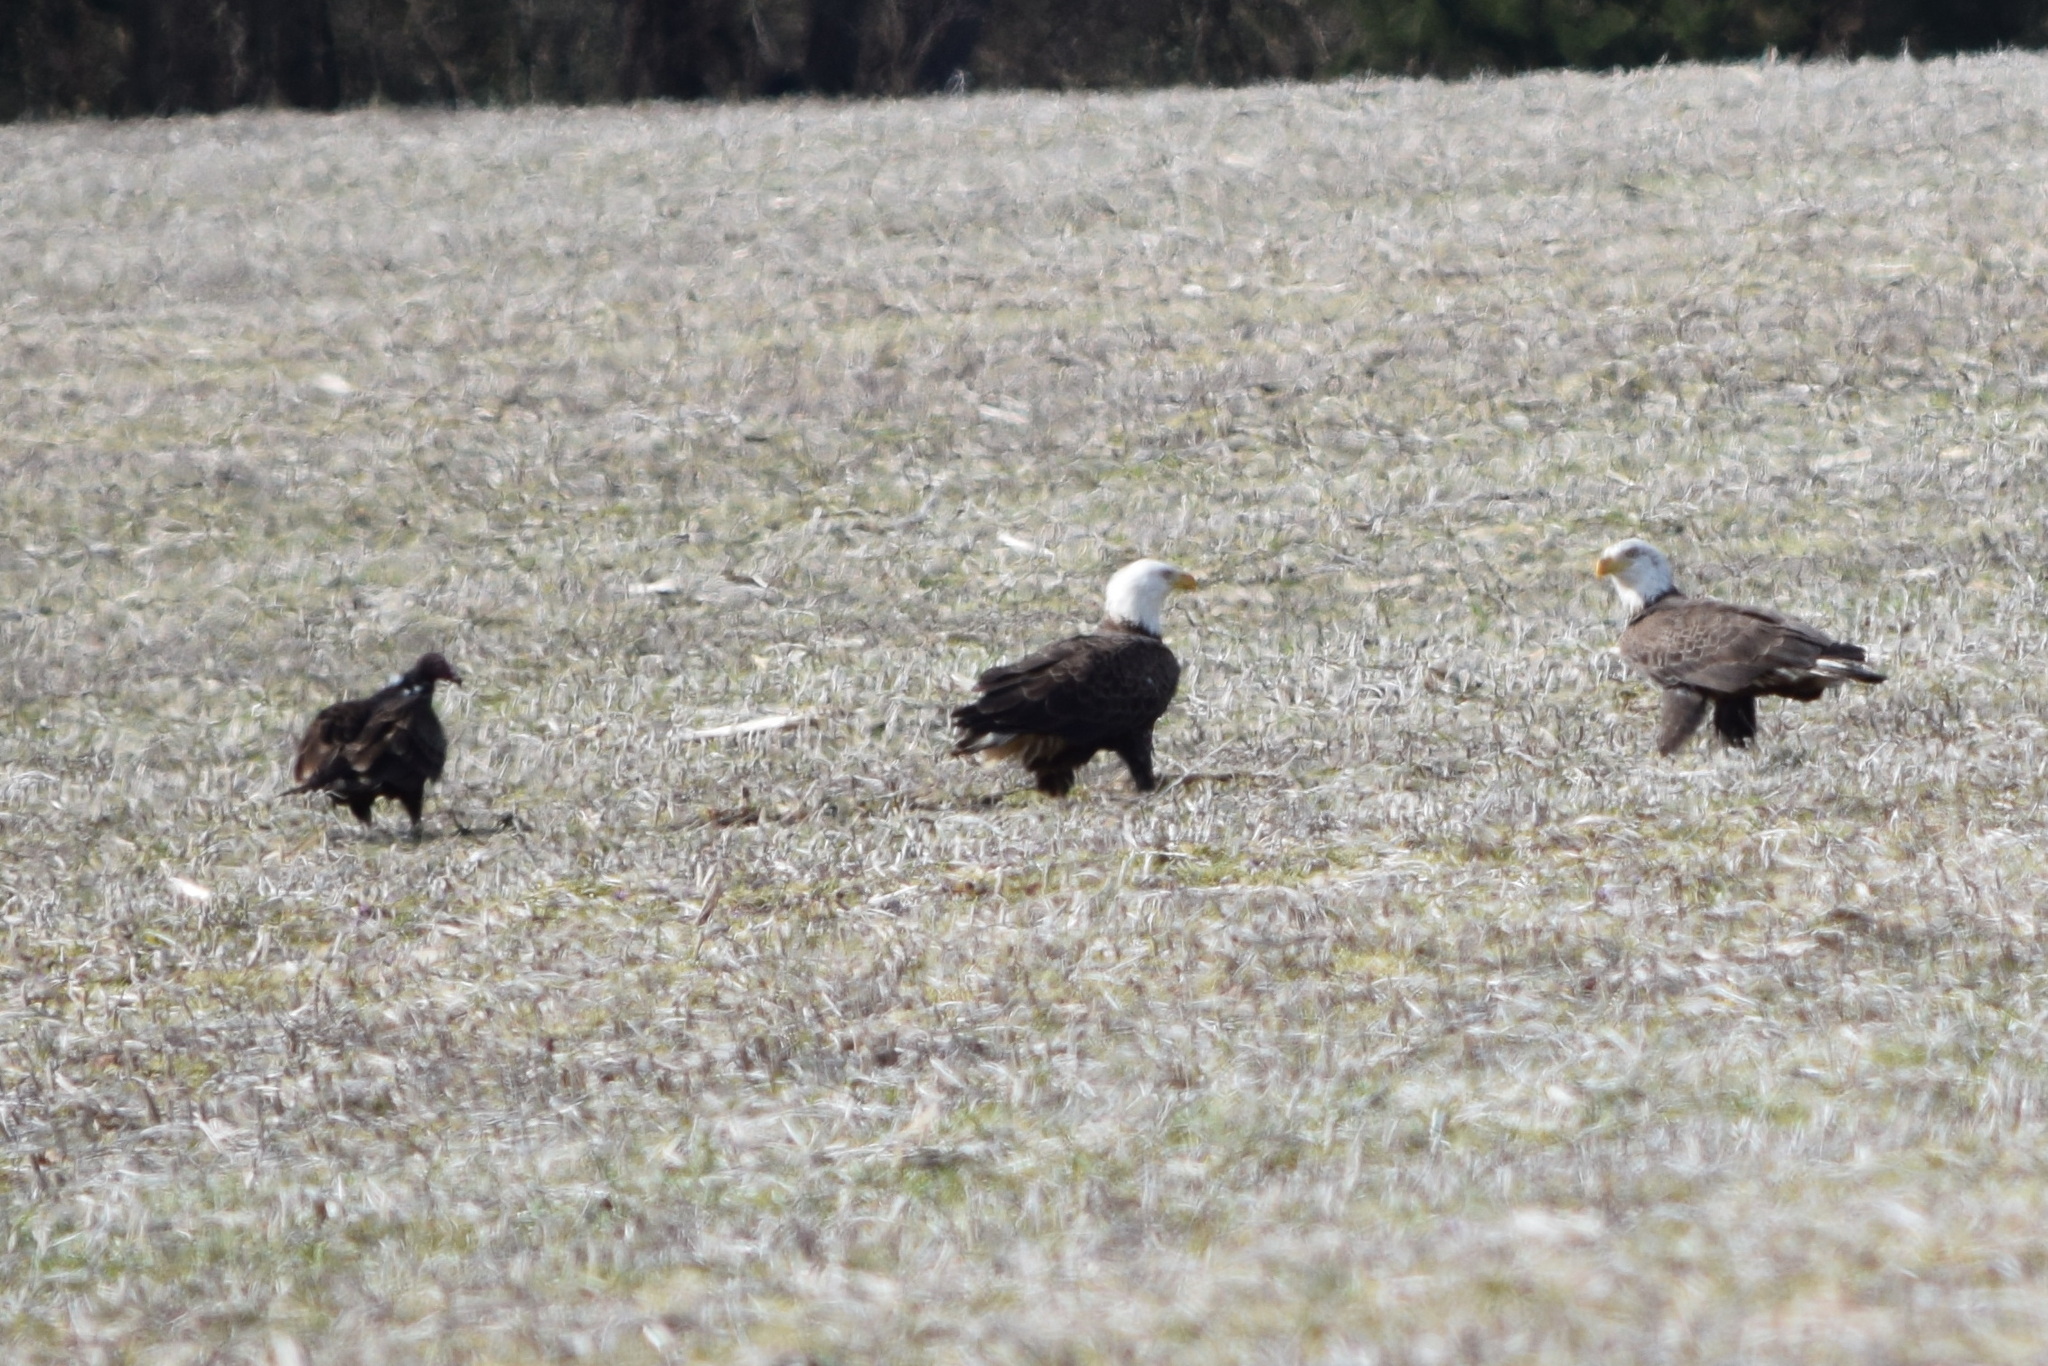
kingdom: Animalia
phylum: Chordata
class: Aves
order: Accipitriformes
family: Accipitridae
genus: Haliaeetus
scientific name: Haliaeetus leucocephalus
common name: Bald eagle
